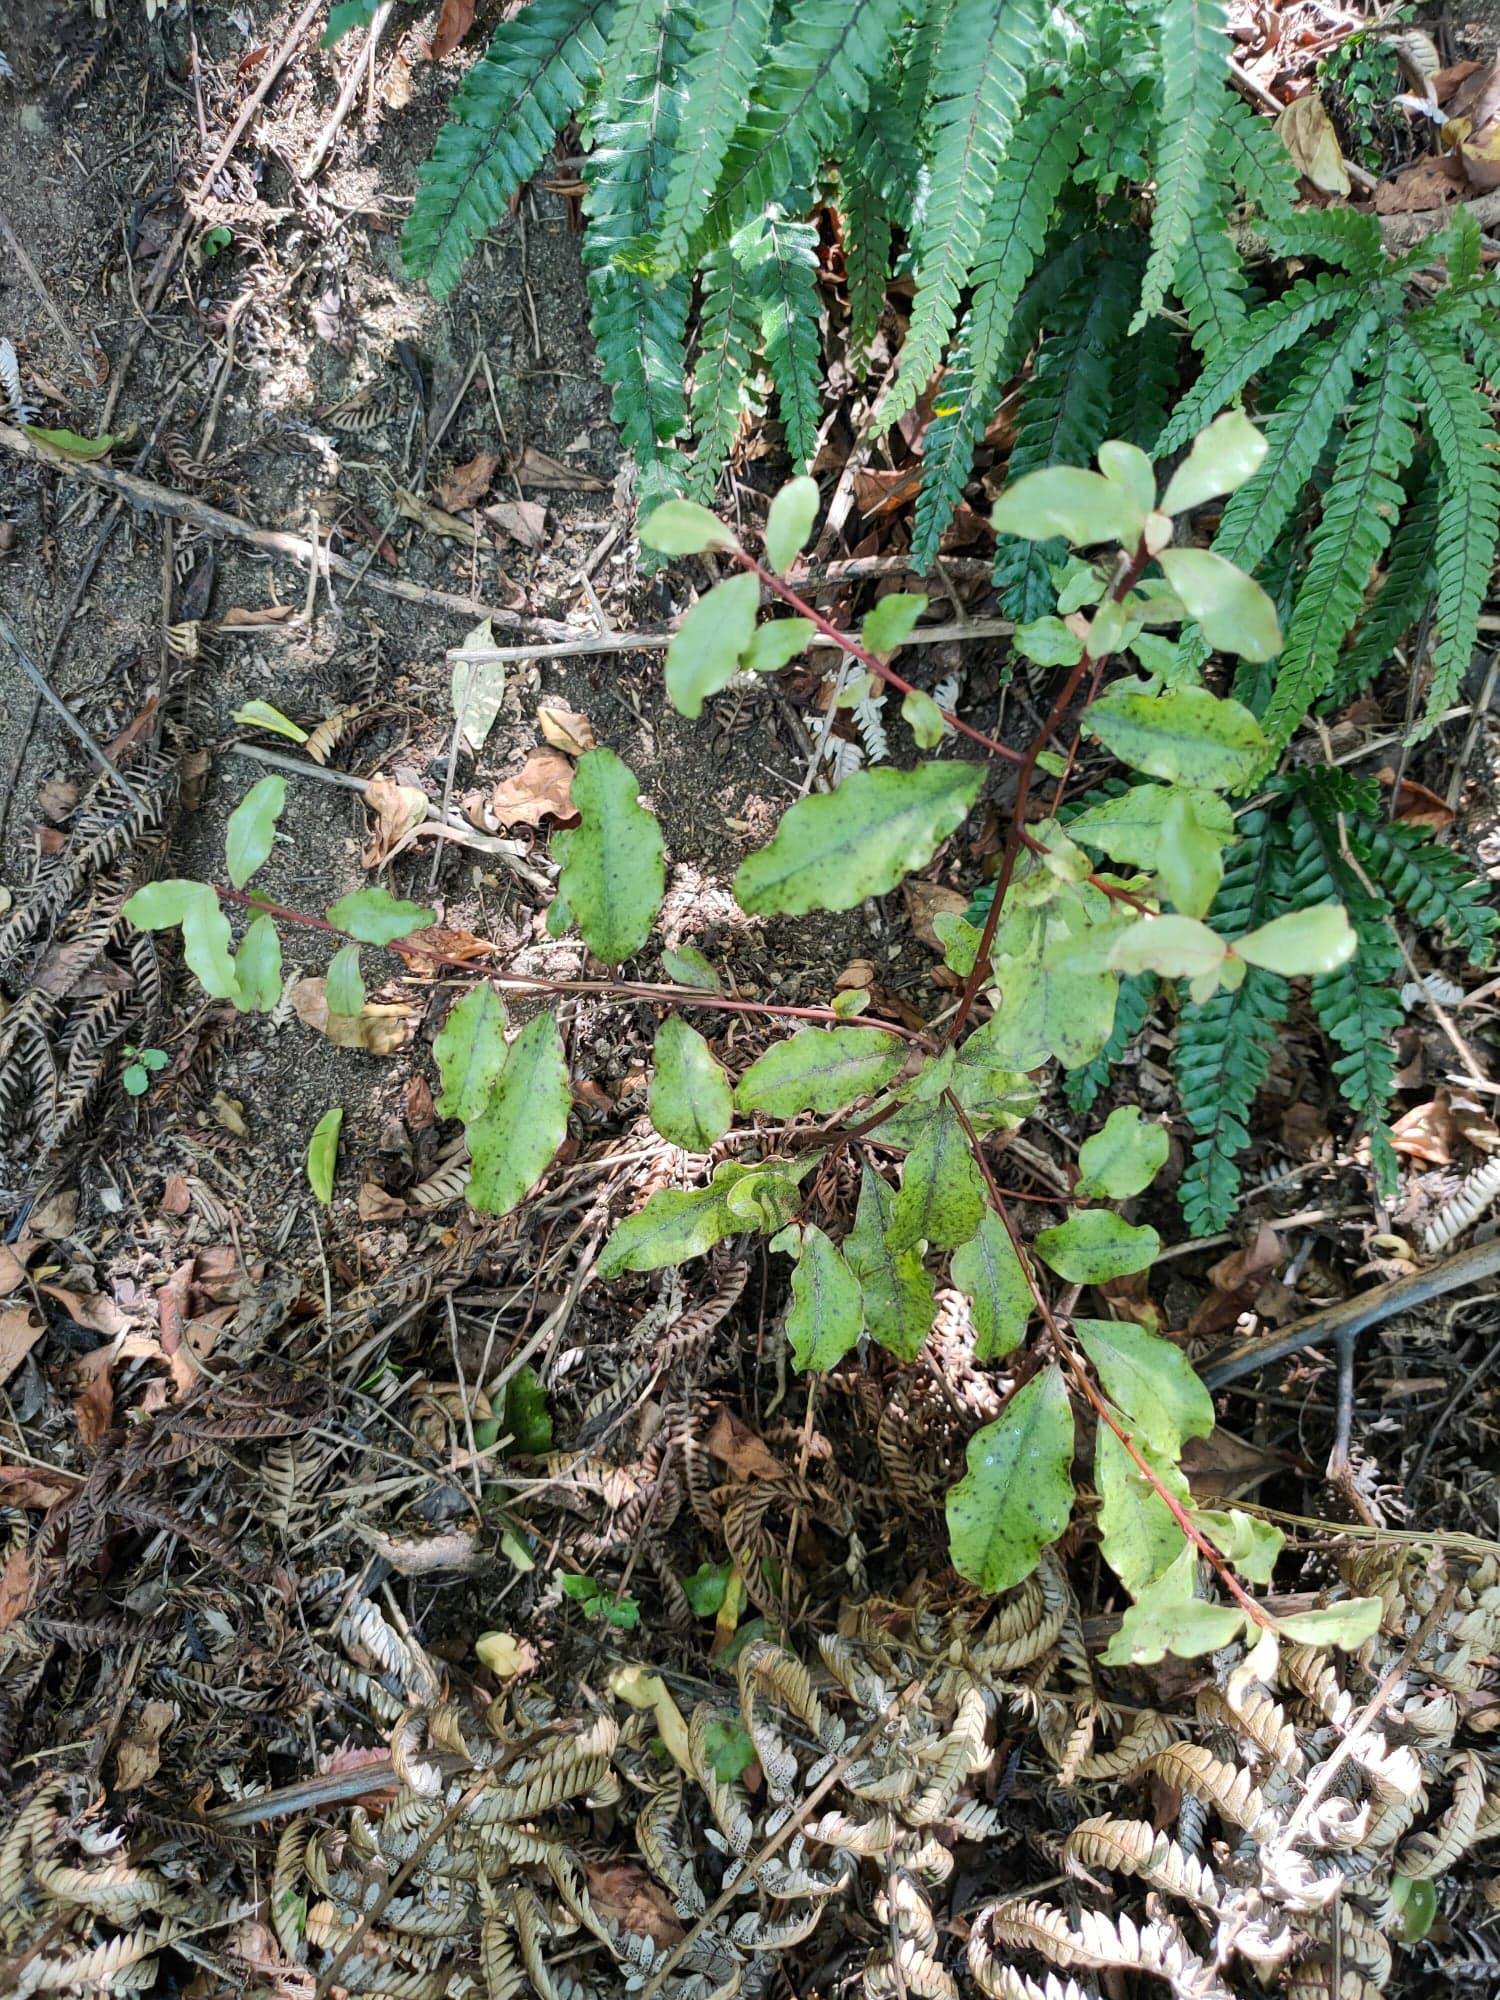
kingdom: Plantae
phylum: Tracheophyta
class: Magnoliopsida
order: Ericales
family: Primulaceae
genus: Myrsine
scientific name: Myrsine australis
